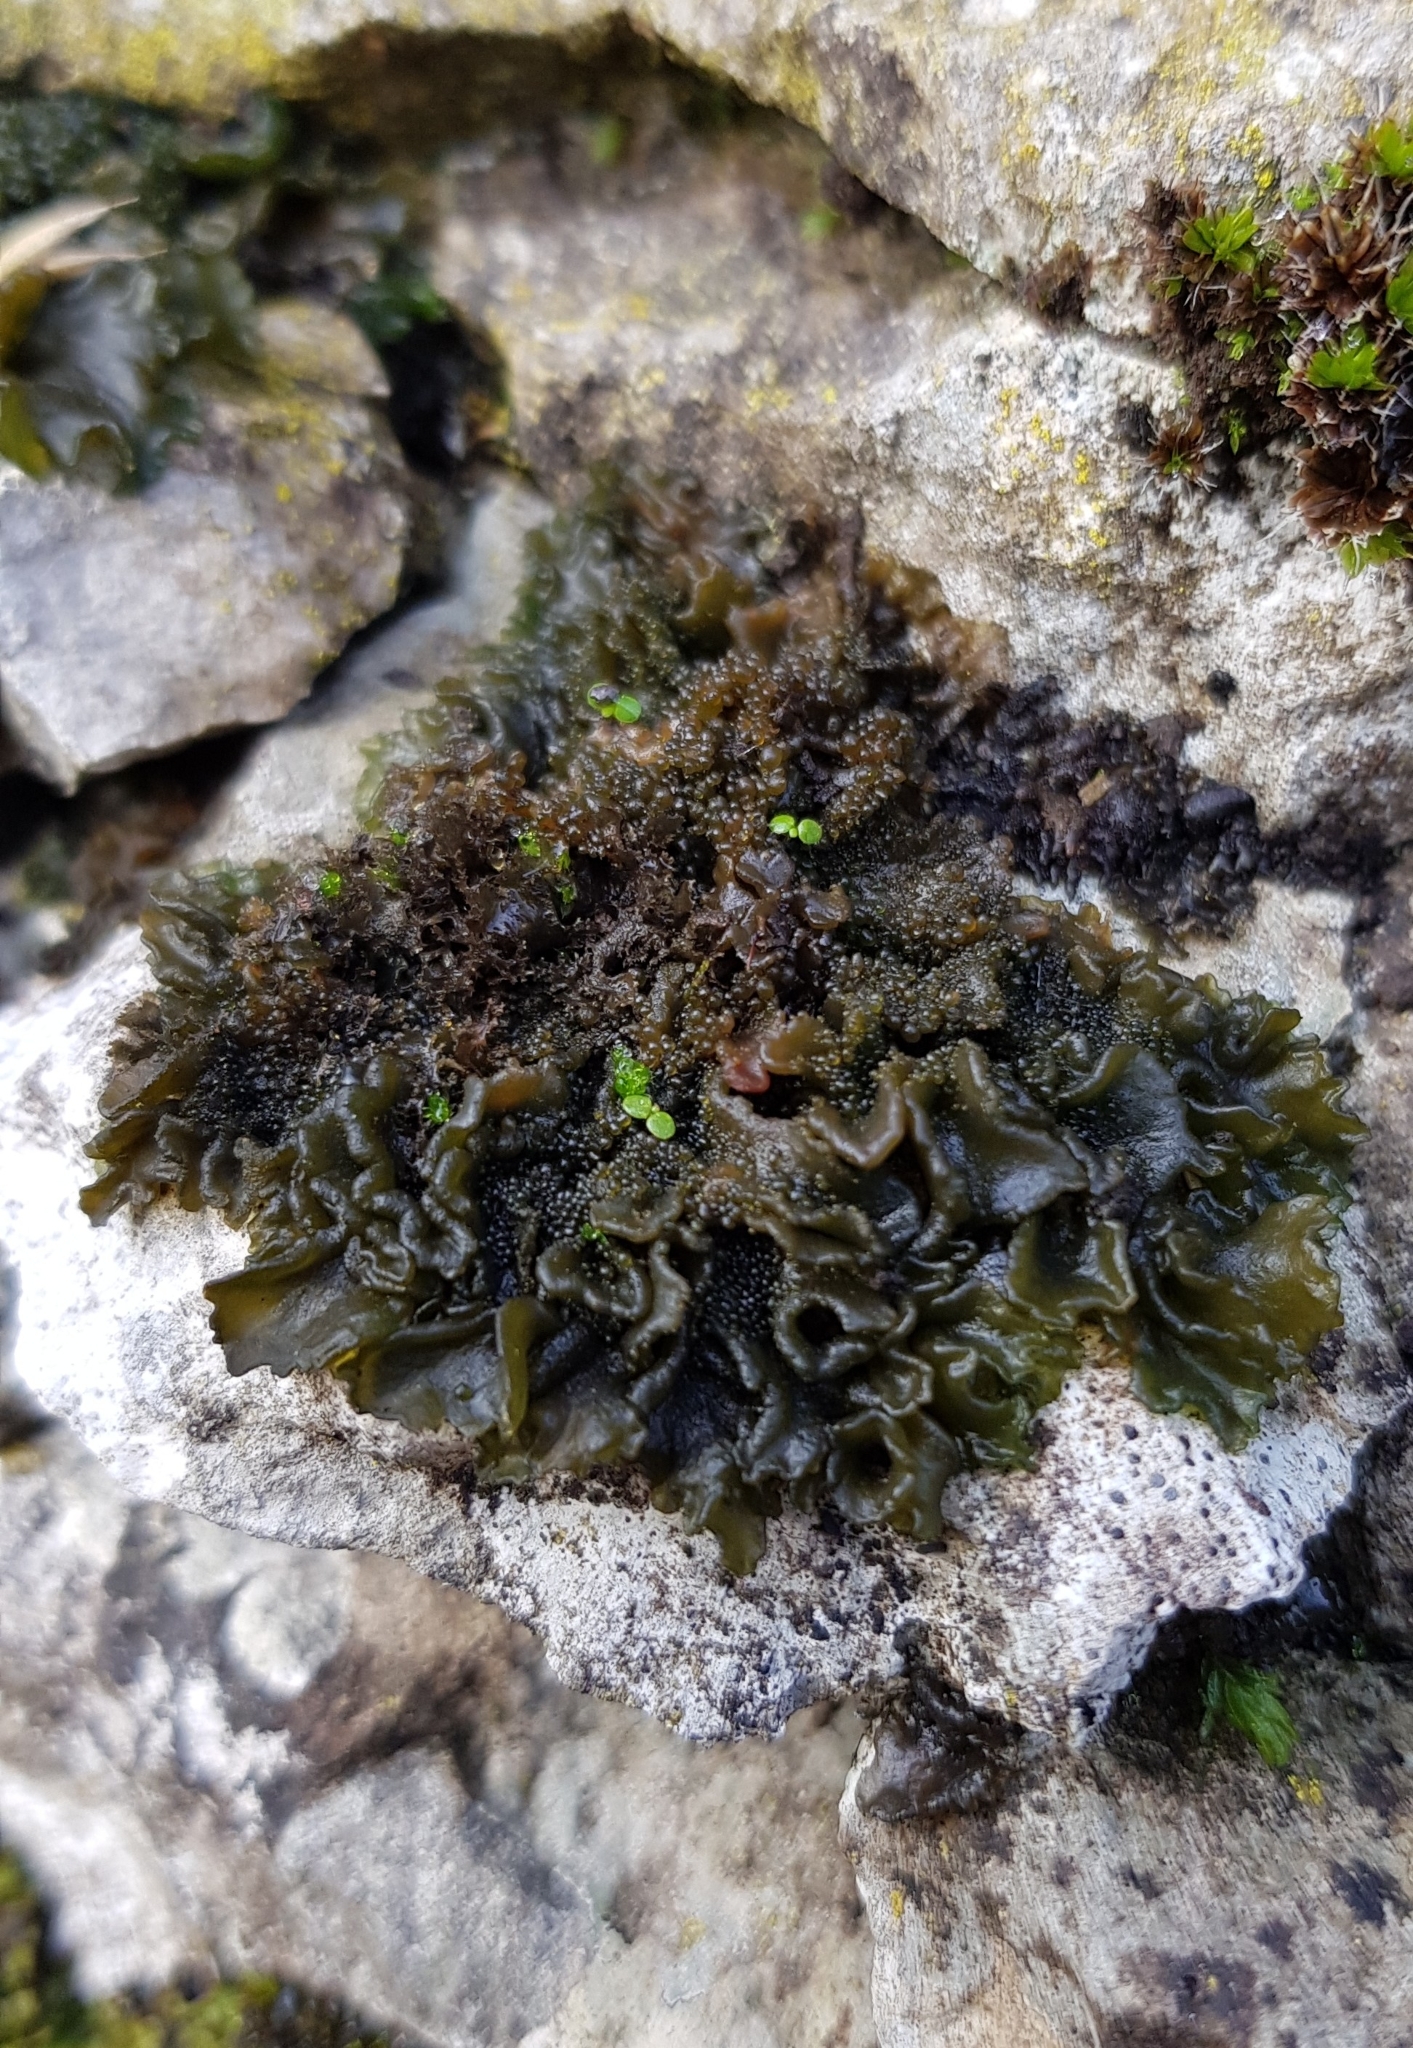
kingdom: Fungi
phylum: Ascomycota
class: Lecanoromycetes
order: Peltigerales
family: Collemataceae
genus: Lathagrium
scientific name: Lathagrium auriforme
